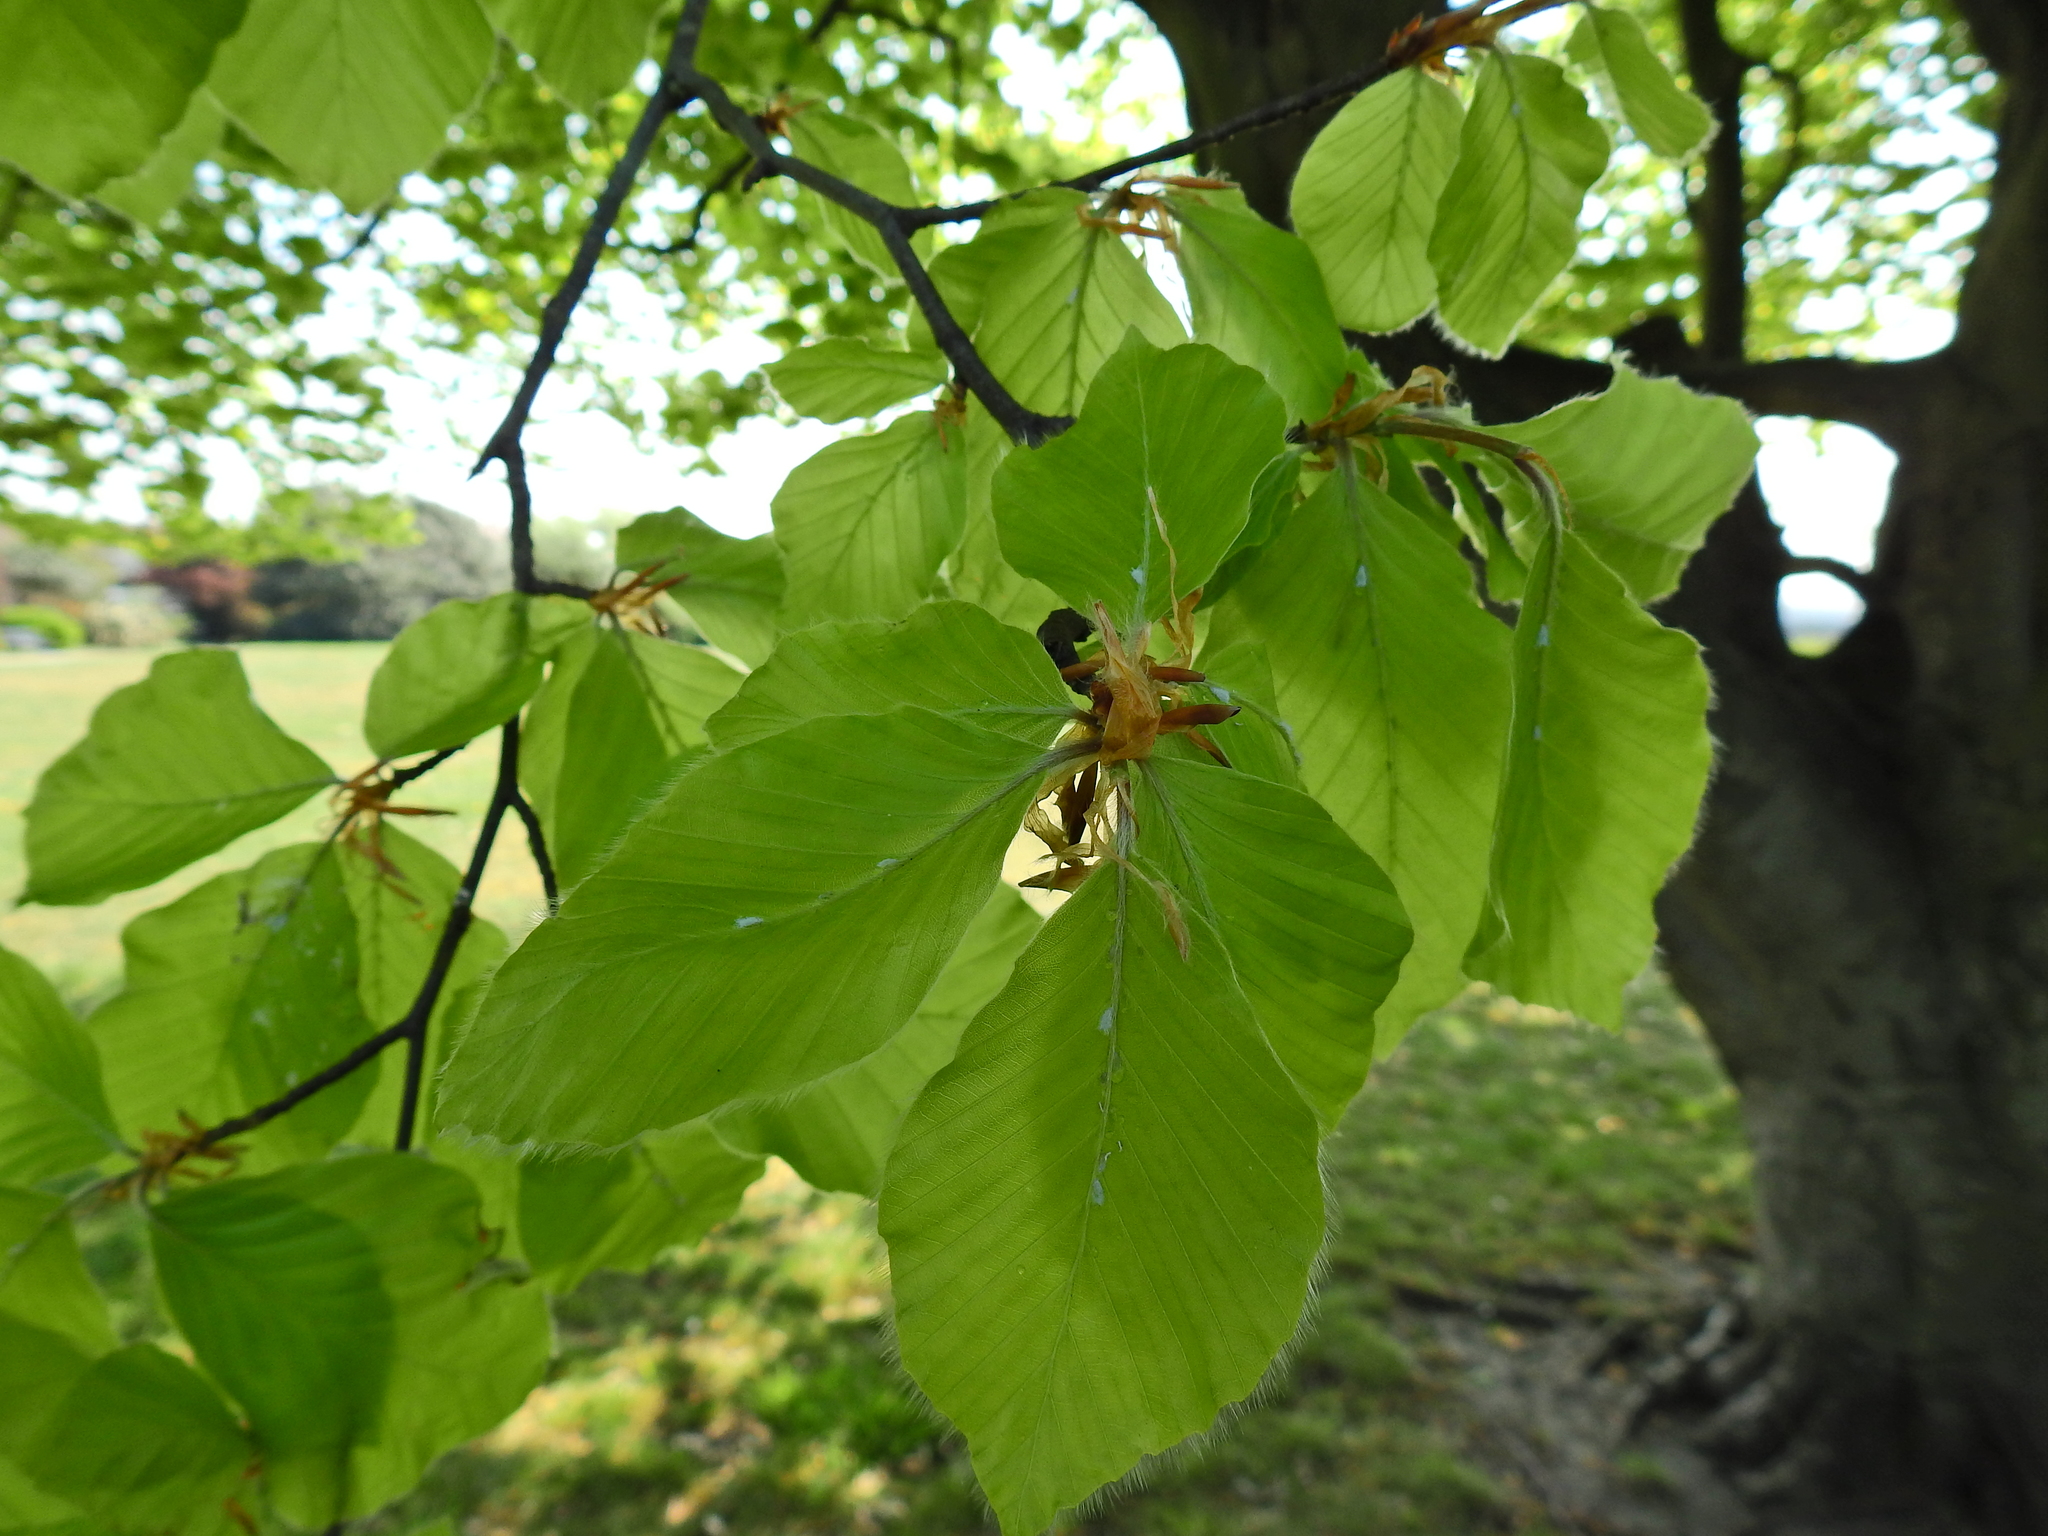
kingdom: Plantae
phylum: Tracheophyta
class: Magnoliopsida
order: Fagales
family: Fagaceae
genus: Fagus
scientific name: Fagus sylvatica
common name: Beech
